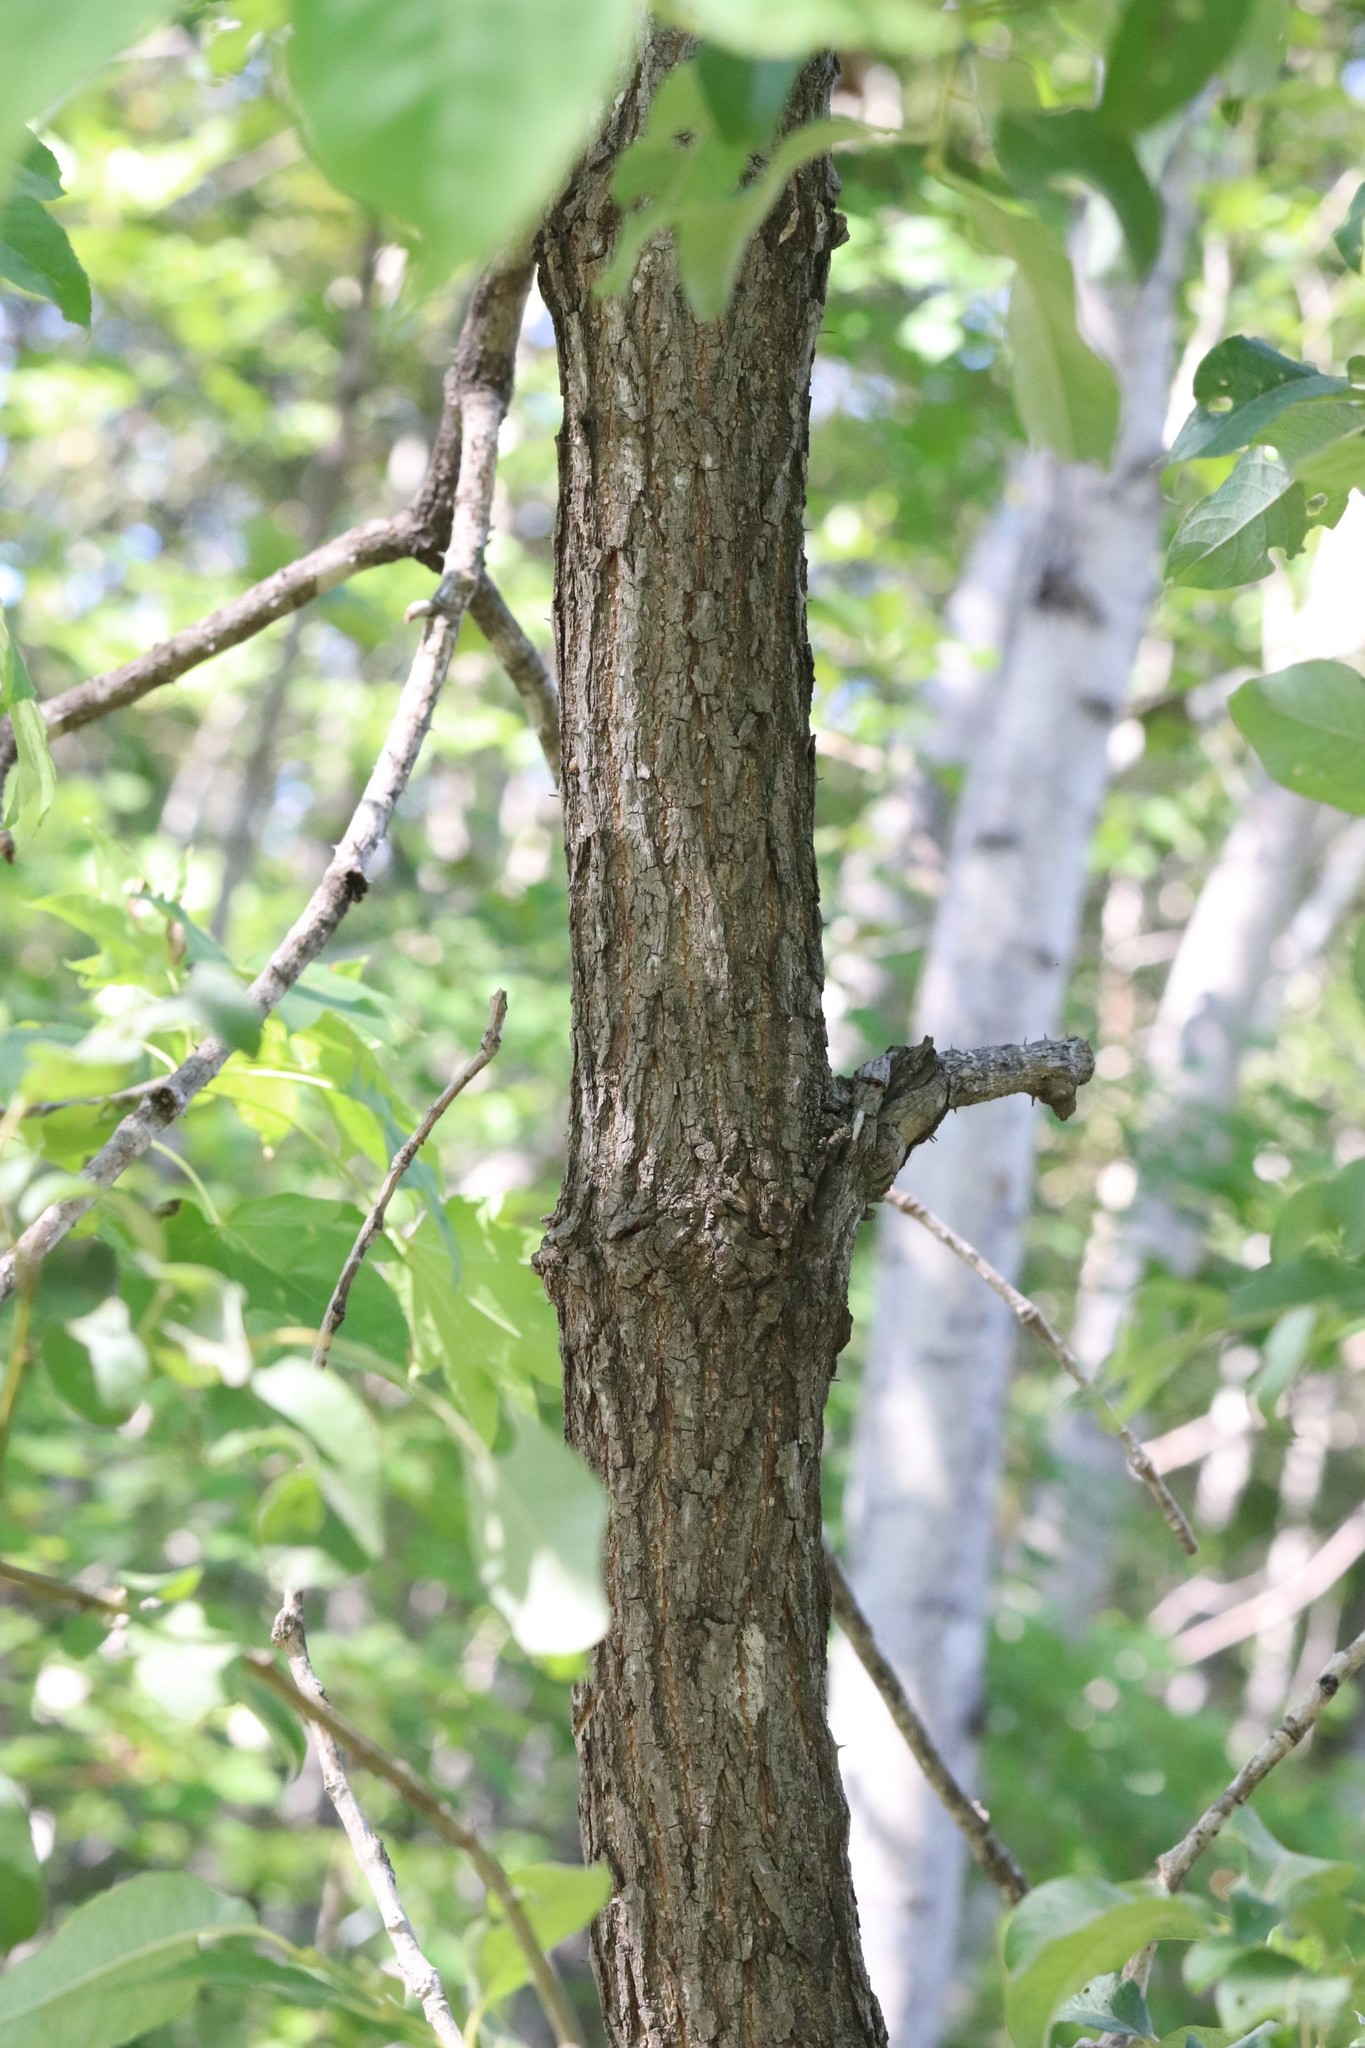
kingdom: Plantae
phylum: Tracheophyta
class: Magnoliopsida
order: Apiales
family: Araliaceae
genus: Kalopanax
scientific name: Kalopanax septemlobus
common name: Castor aralia
